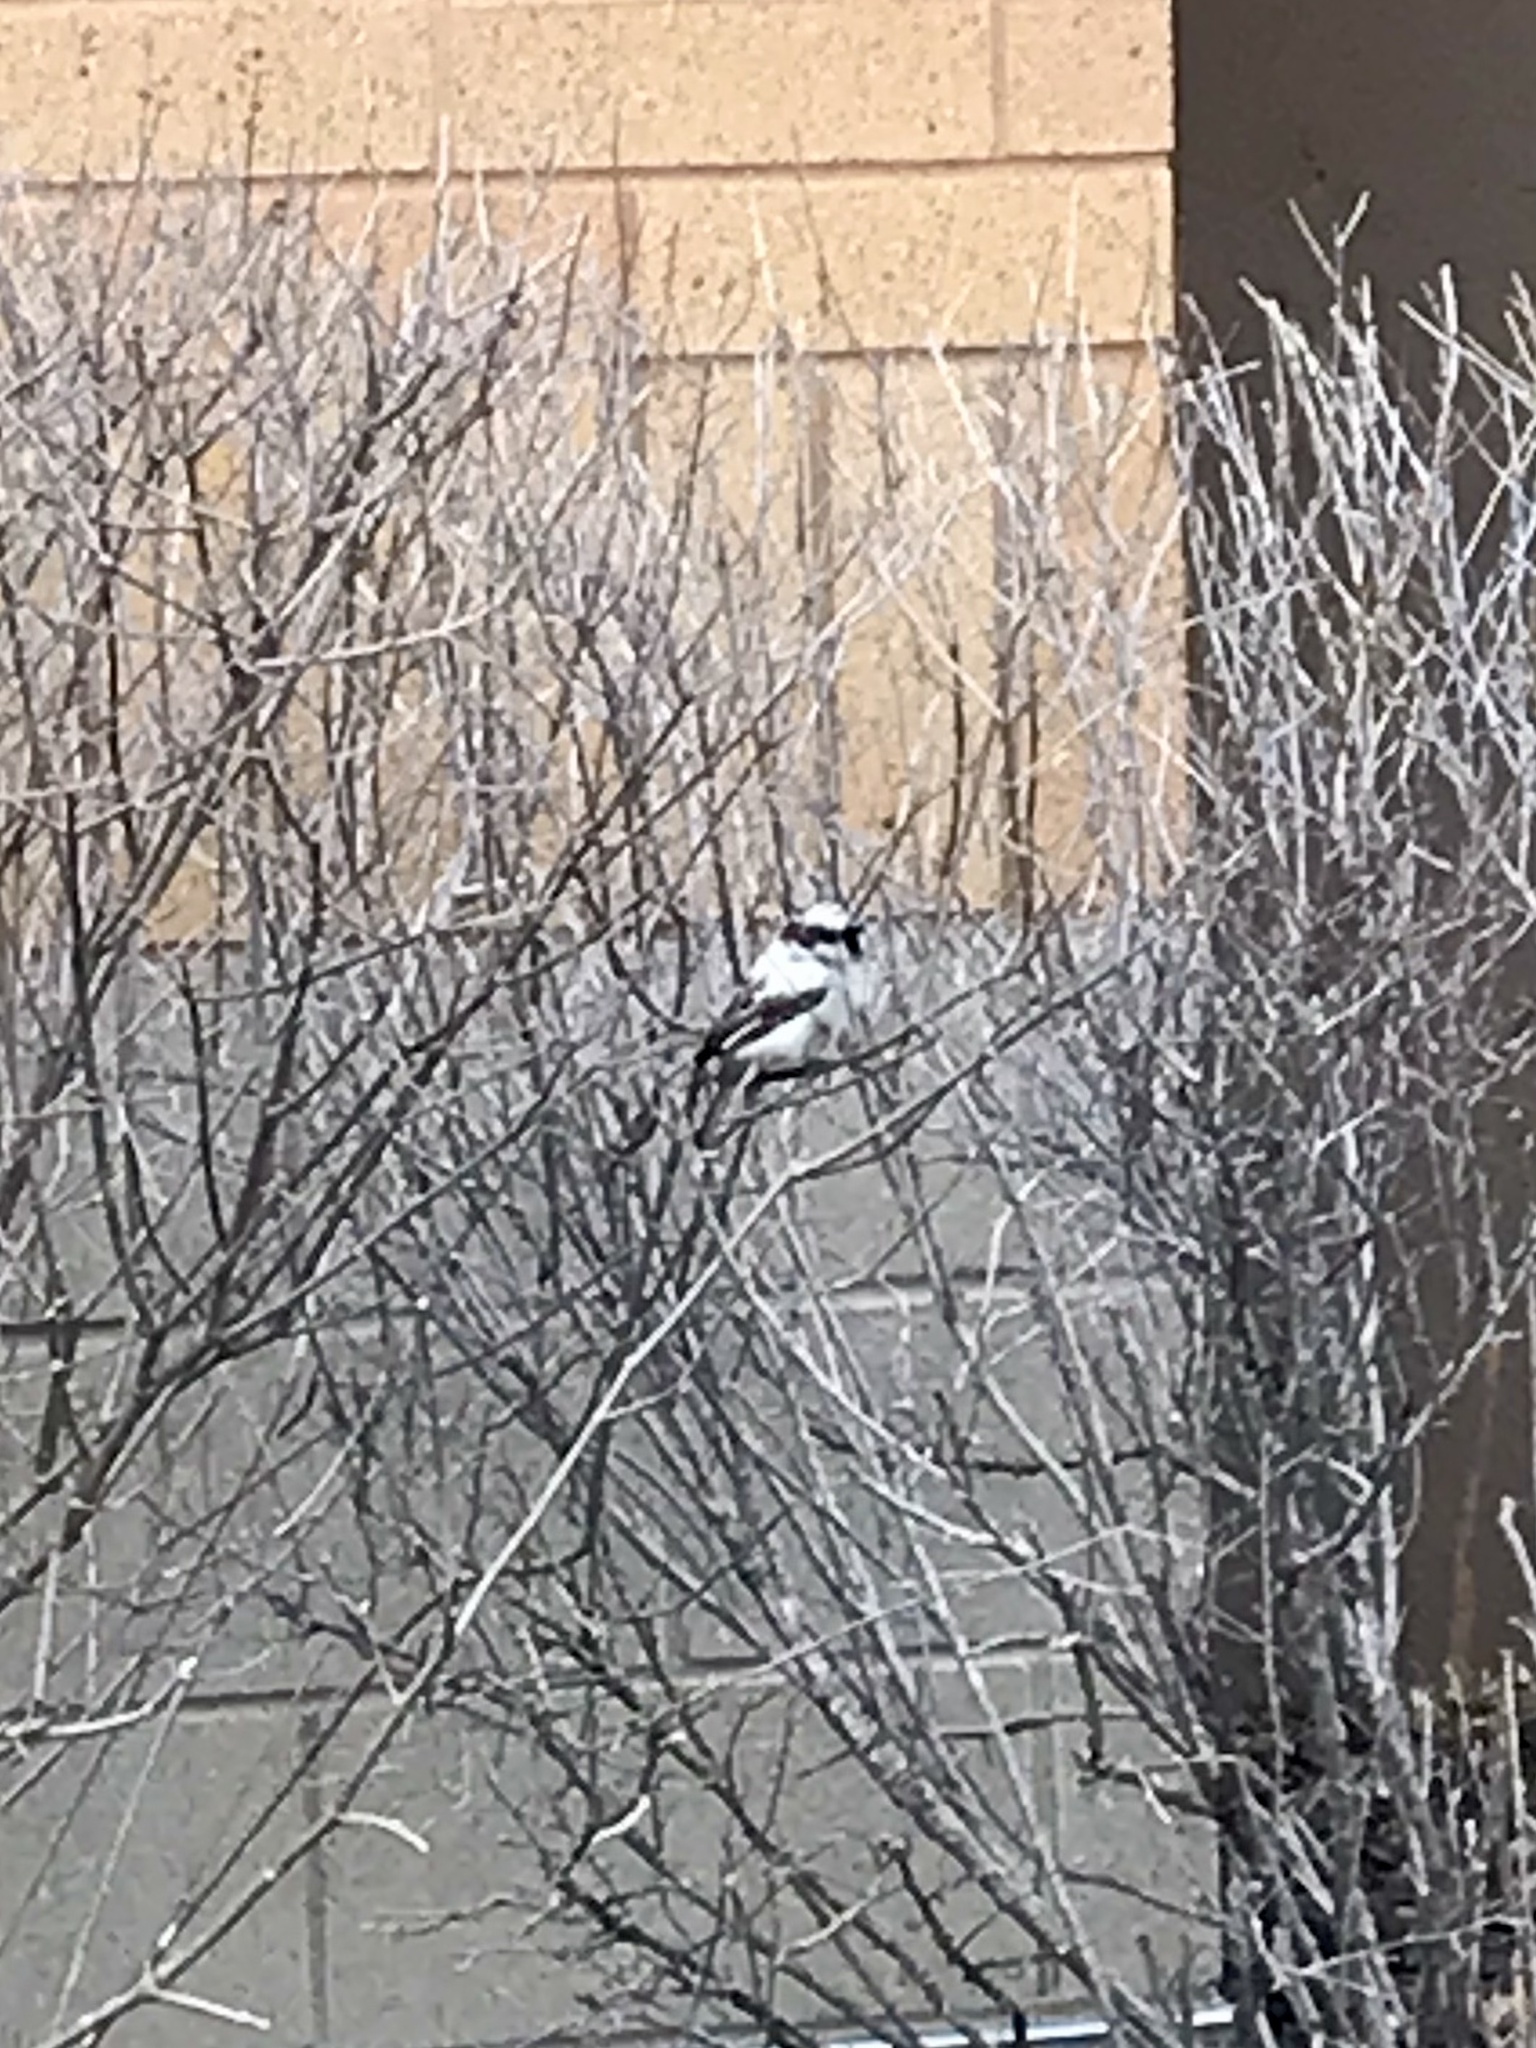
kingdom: Animalia
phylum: Chordata
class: Aves
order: Passeriformes
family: Passeridae
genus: Passer
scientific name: Passer domesticus
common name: House sparrow
